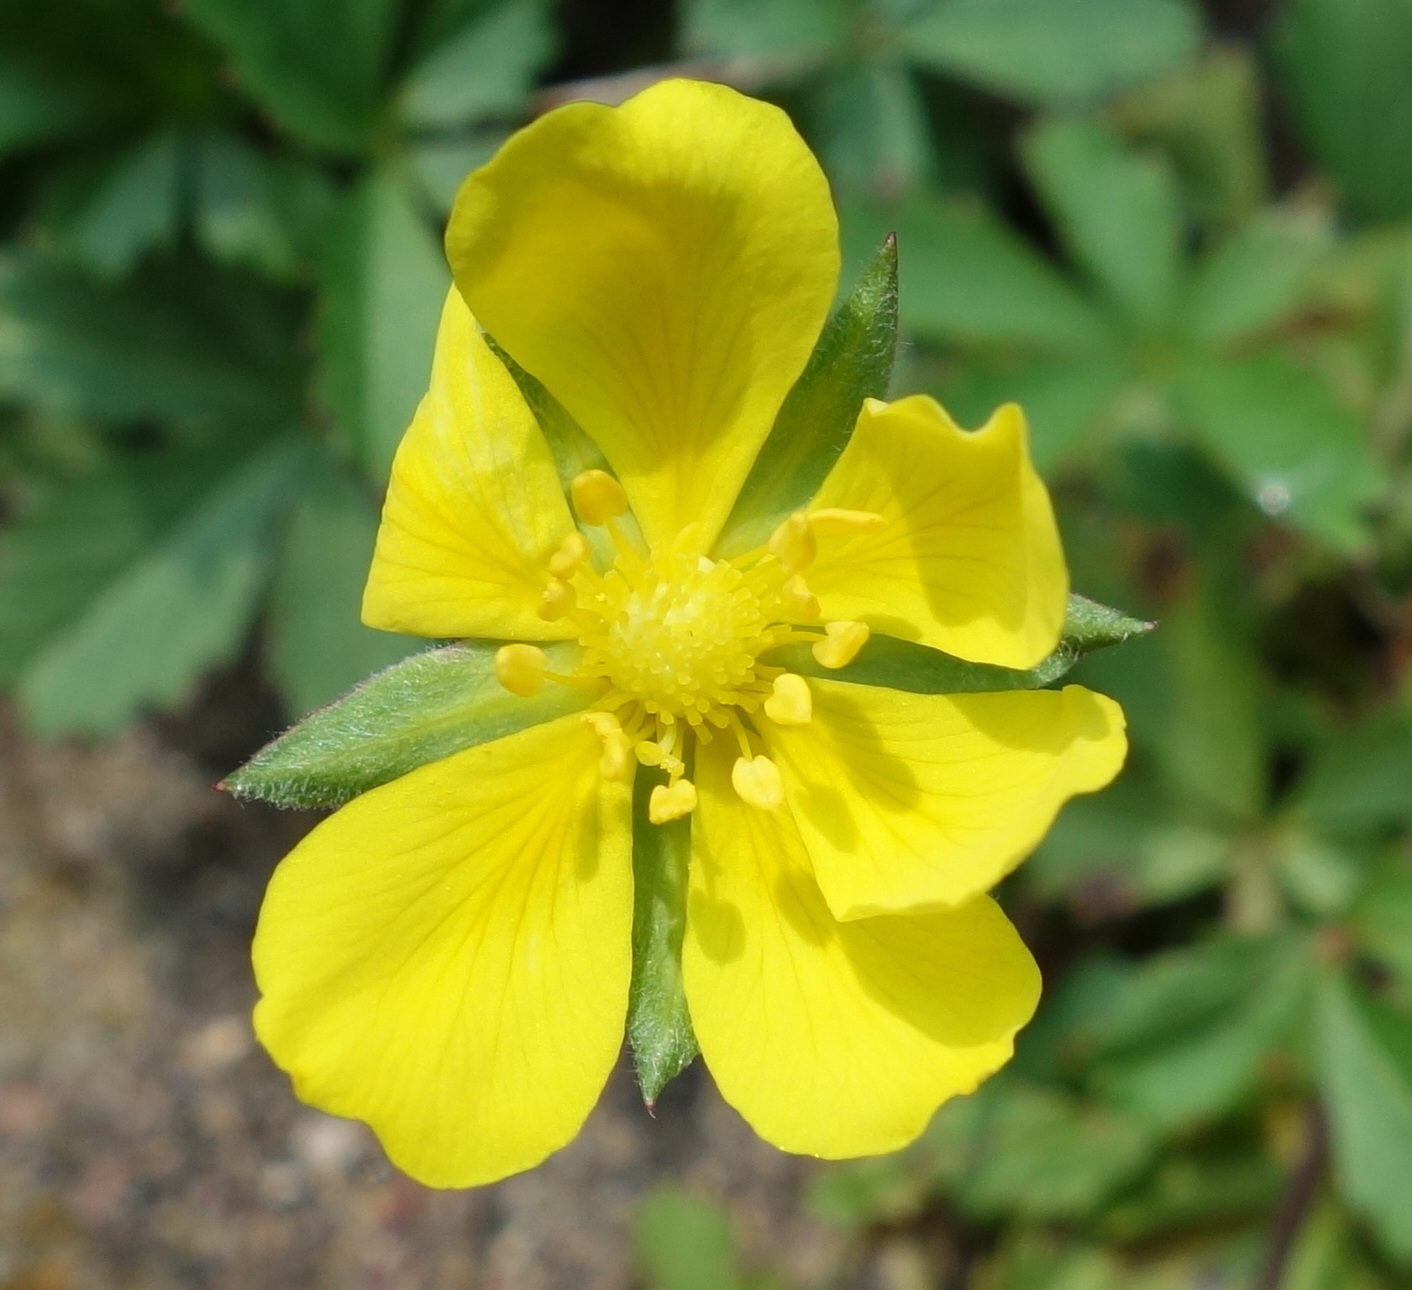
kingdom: Plantae
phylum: Tracheophyta
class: Magnoliopsida
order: Rosales
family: Rosaceae
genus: Potentilla
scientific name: Potentilla reptans
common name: Creeping cinquefoil
